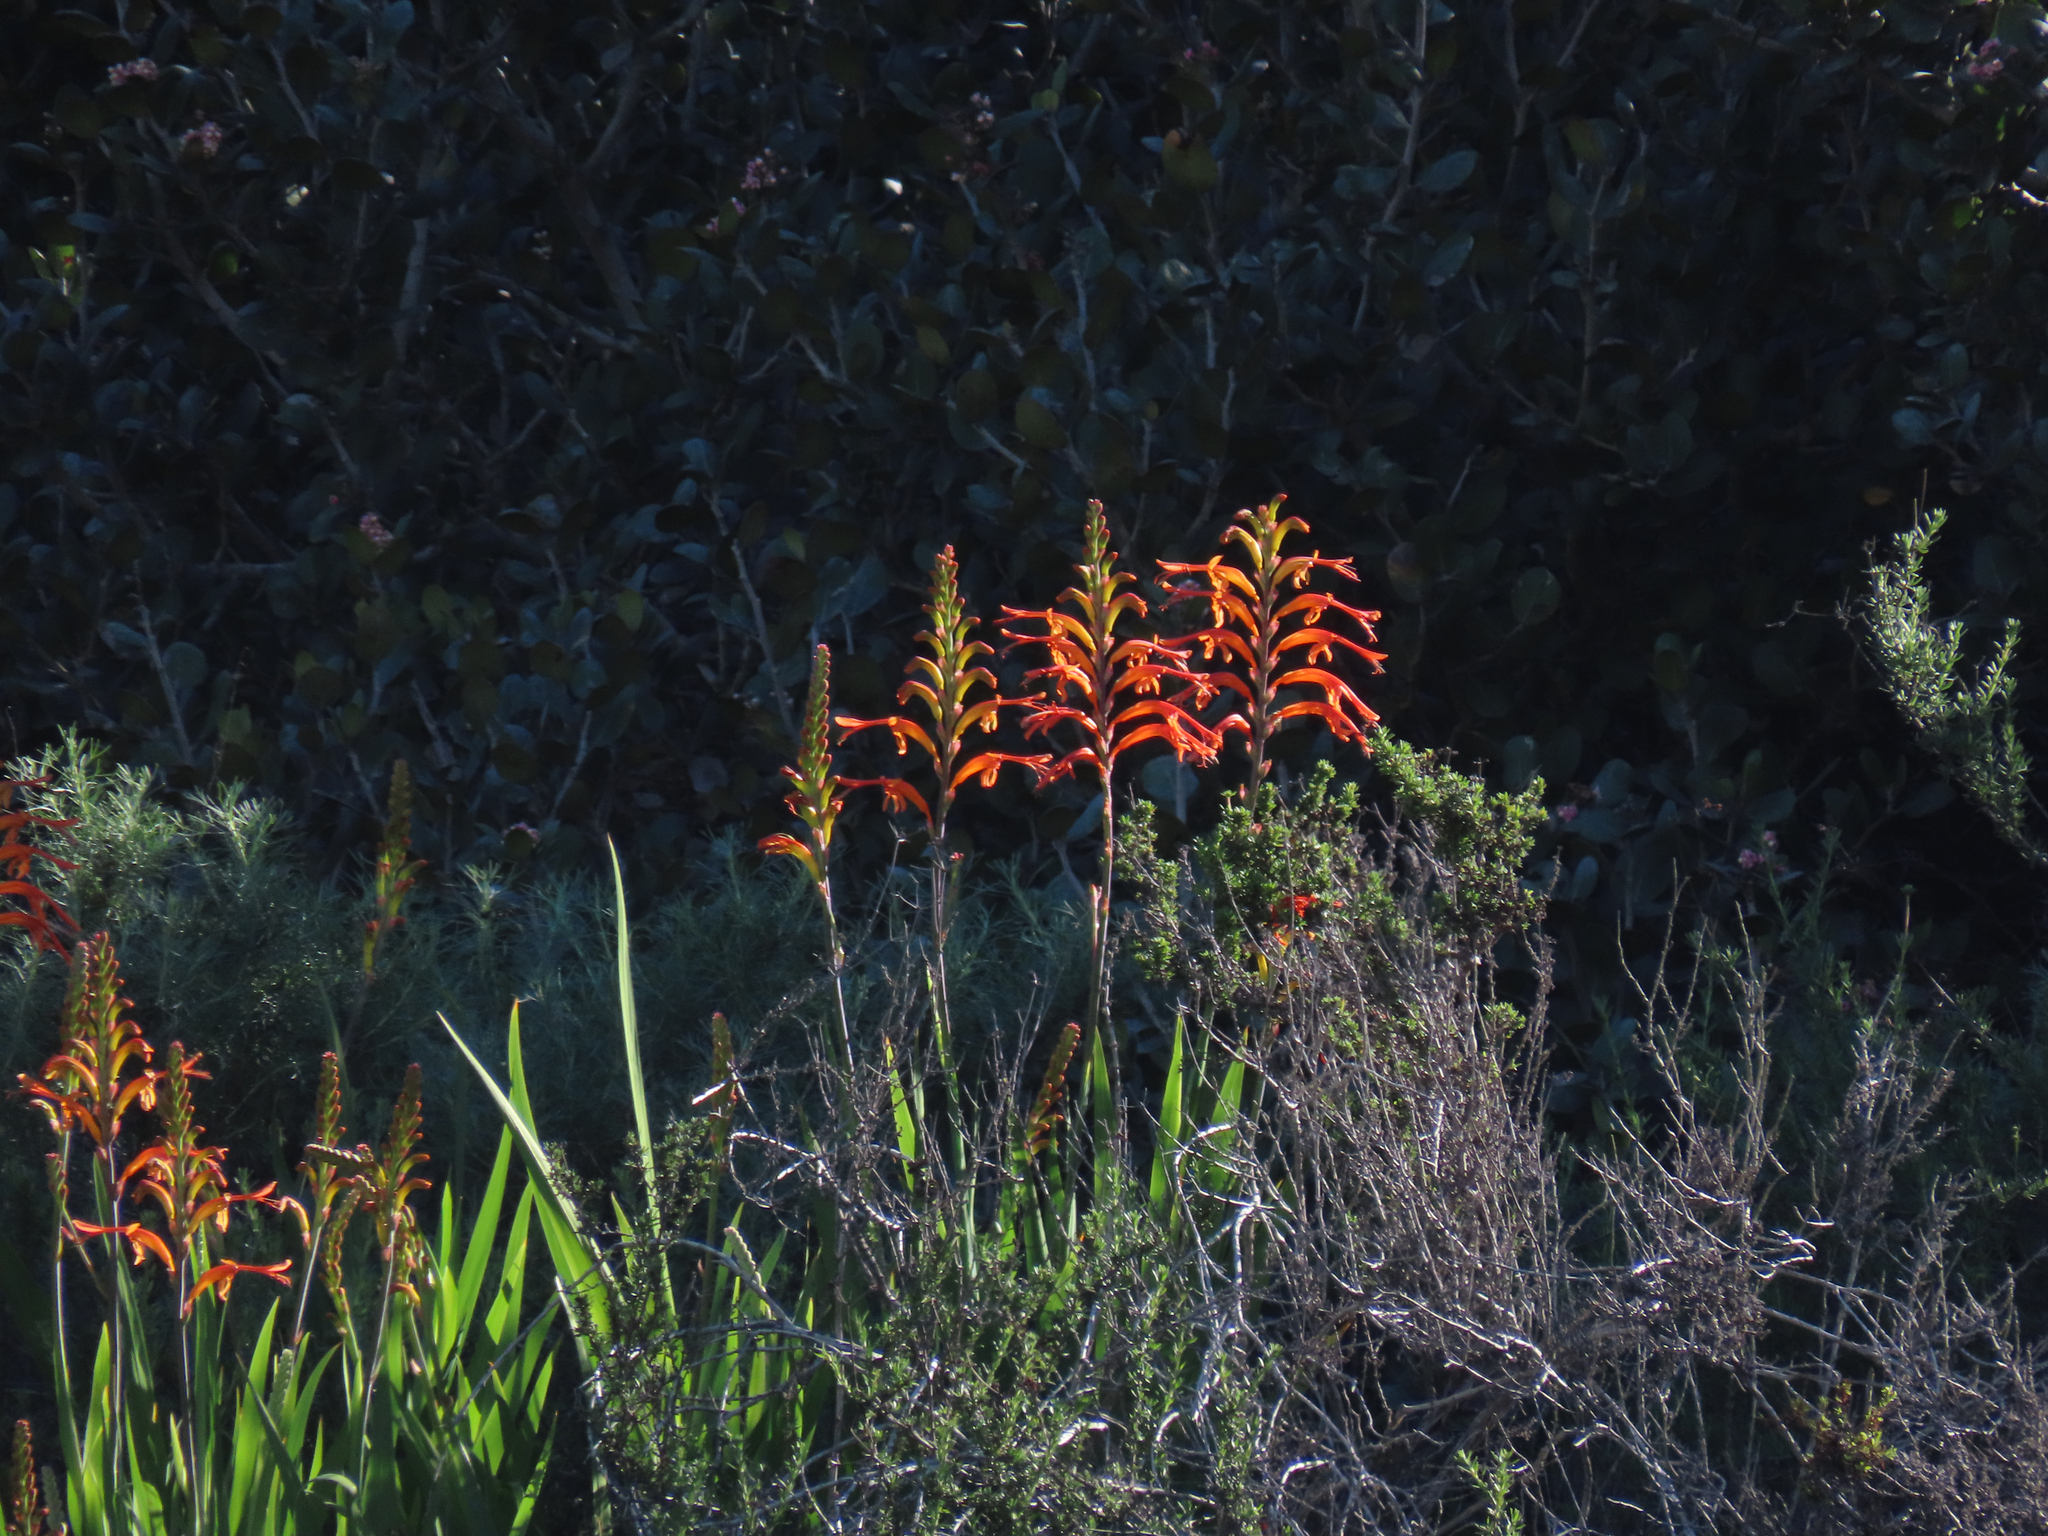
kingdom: Plantae
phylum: Tracheophyta
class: Liliopsida
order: Asparagales
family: Iridaceae
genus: Chasmanthe
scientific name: Chasmanthe floribunda
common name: African cornflag
